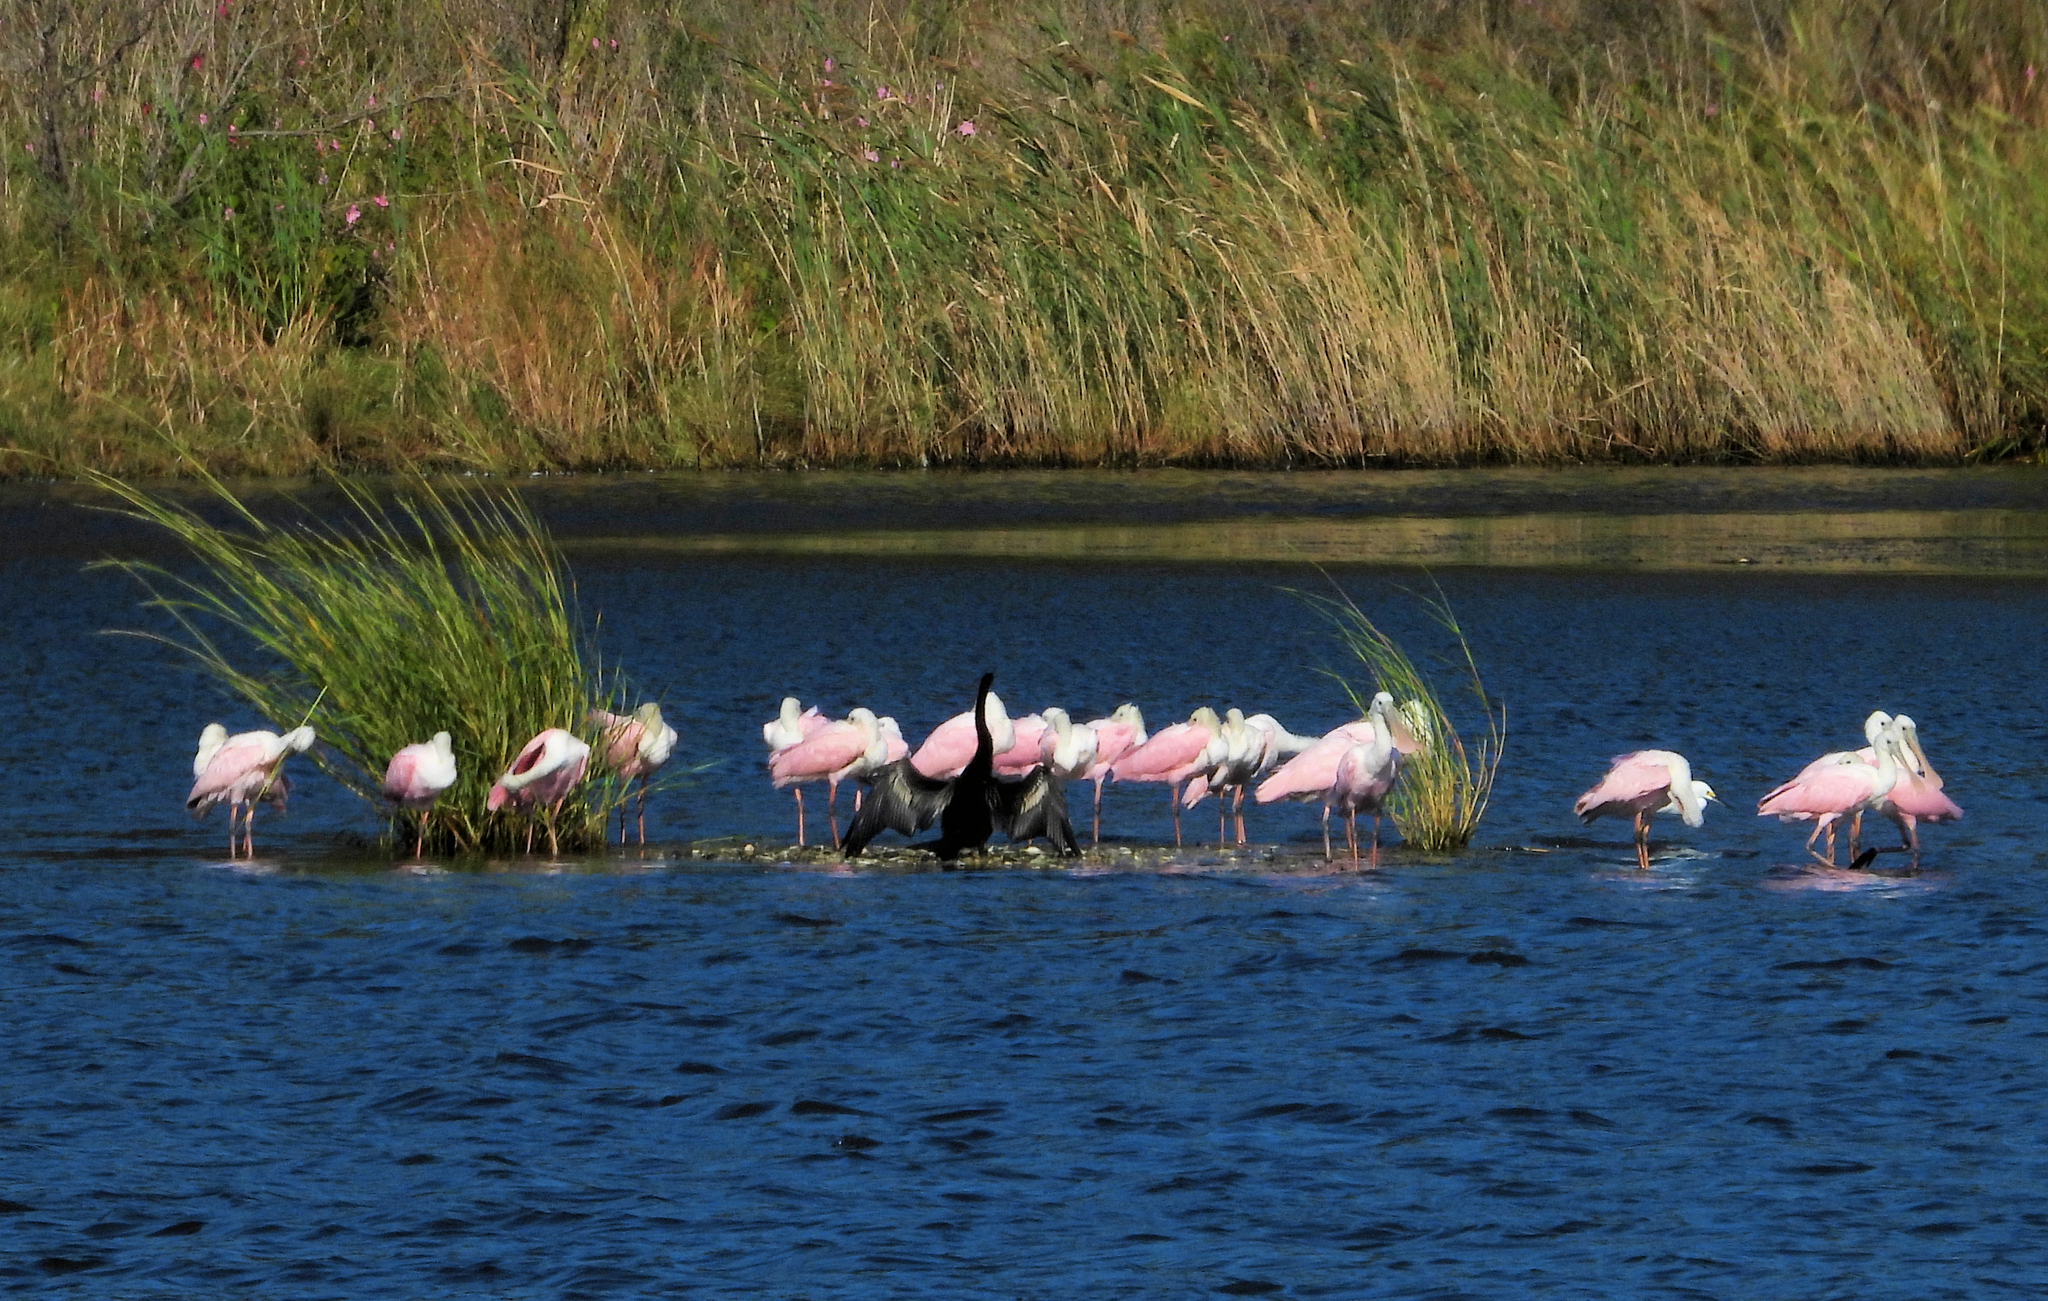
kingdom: Animalia
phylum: Chordata
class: Aves
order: Pelecaniformes
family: Threskiornithidae
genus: Platalea
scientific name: Platalea ajaja
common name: Roseate spoonbill
